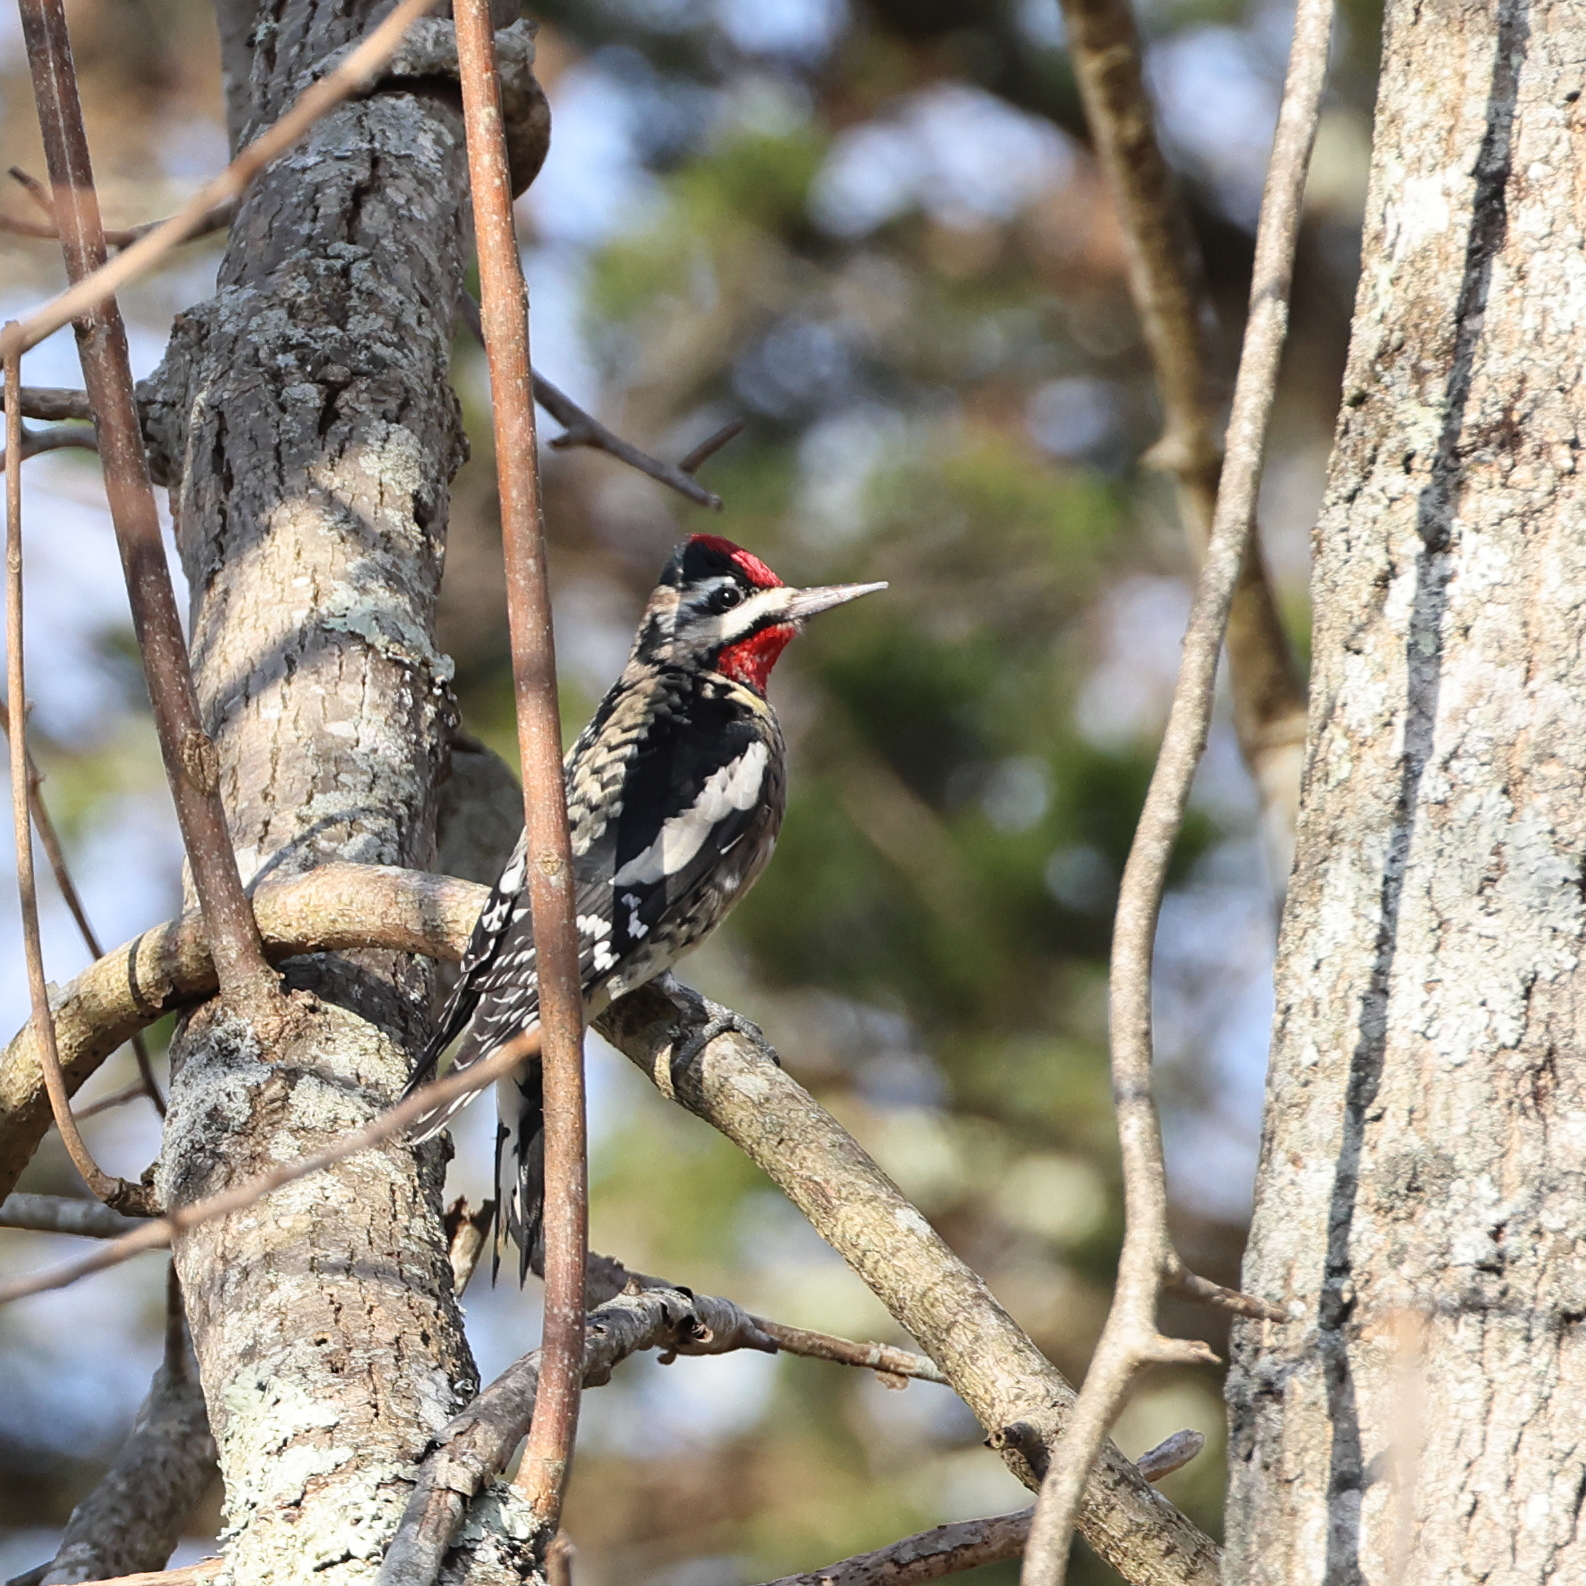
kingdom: Animalia
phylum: Chordata
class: Aves
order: Piciformes
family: Picidae
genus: Sphyrapicus
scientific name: Sphyrapicus varius
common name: Yellow-bellied sapsucker
